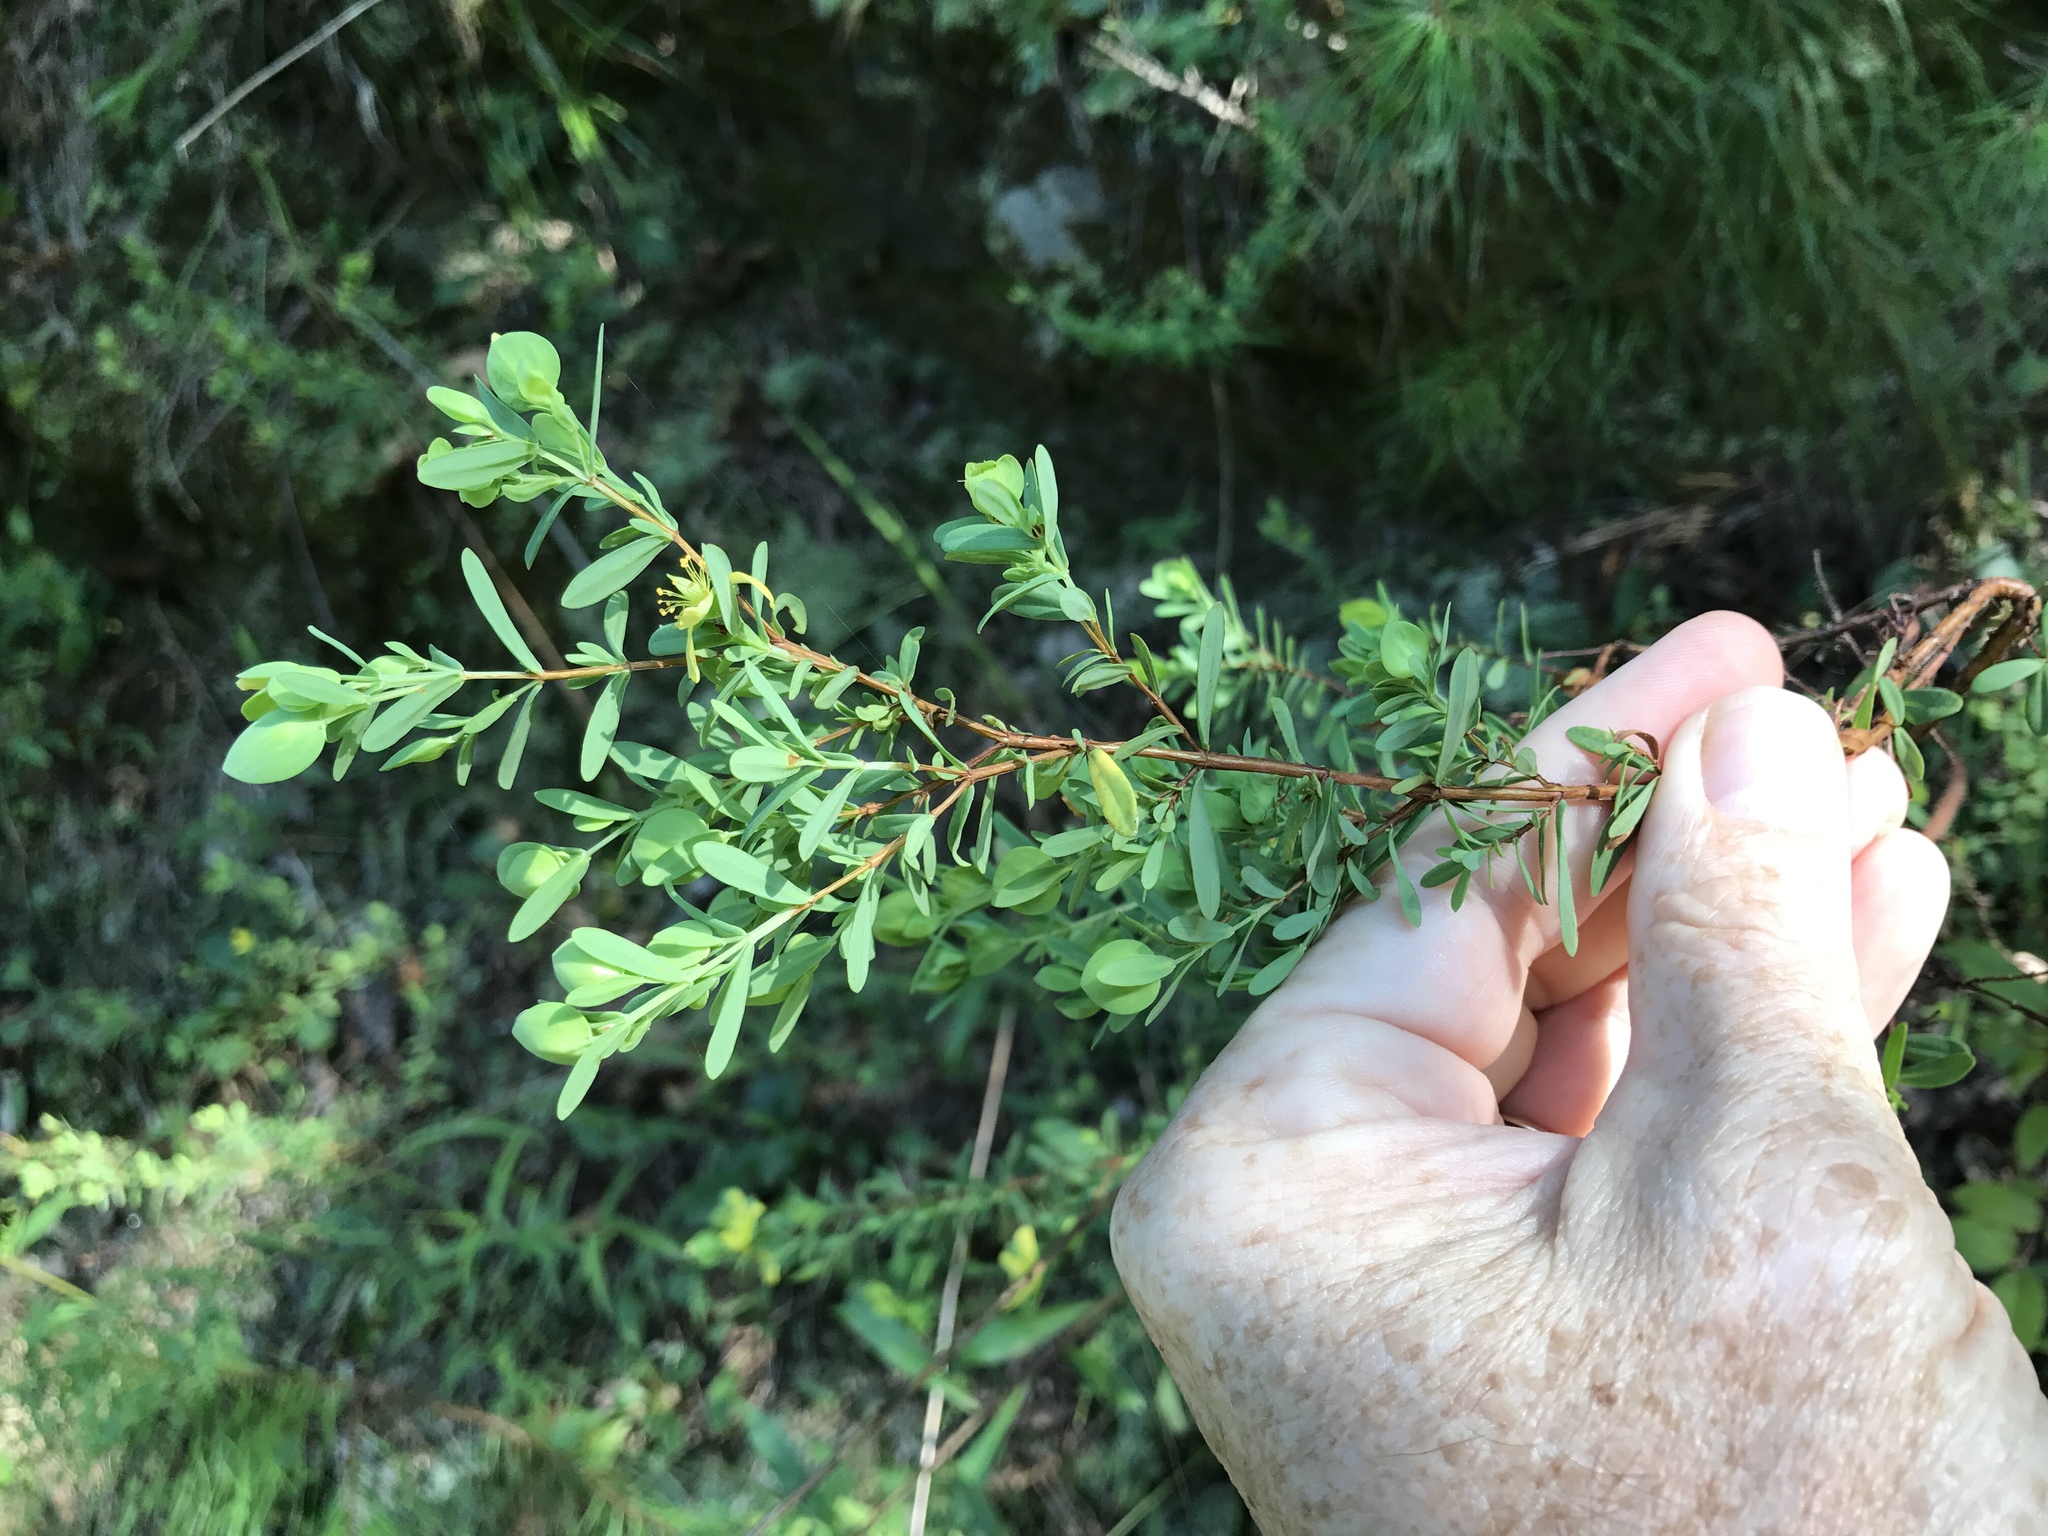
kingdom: Plantae
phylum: Tracheophyta
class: Magnoliopsida
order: Malpighiales
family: Hypericaceae
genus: Hypericum
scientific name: Hypericum hypericoides
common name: St. andrew's cross
